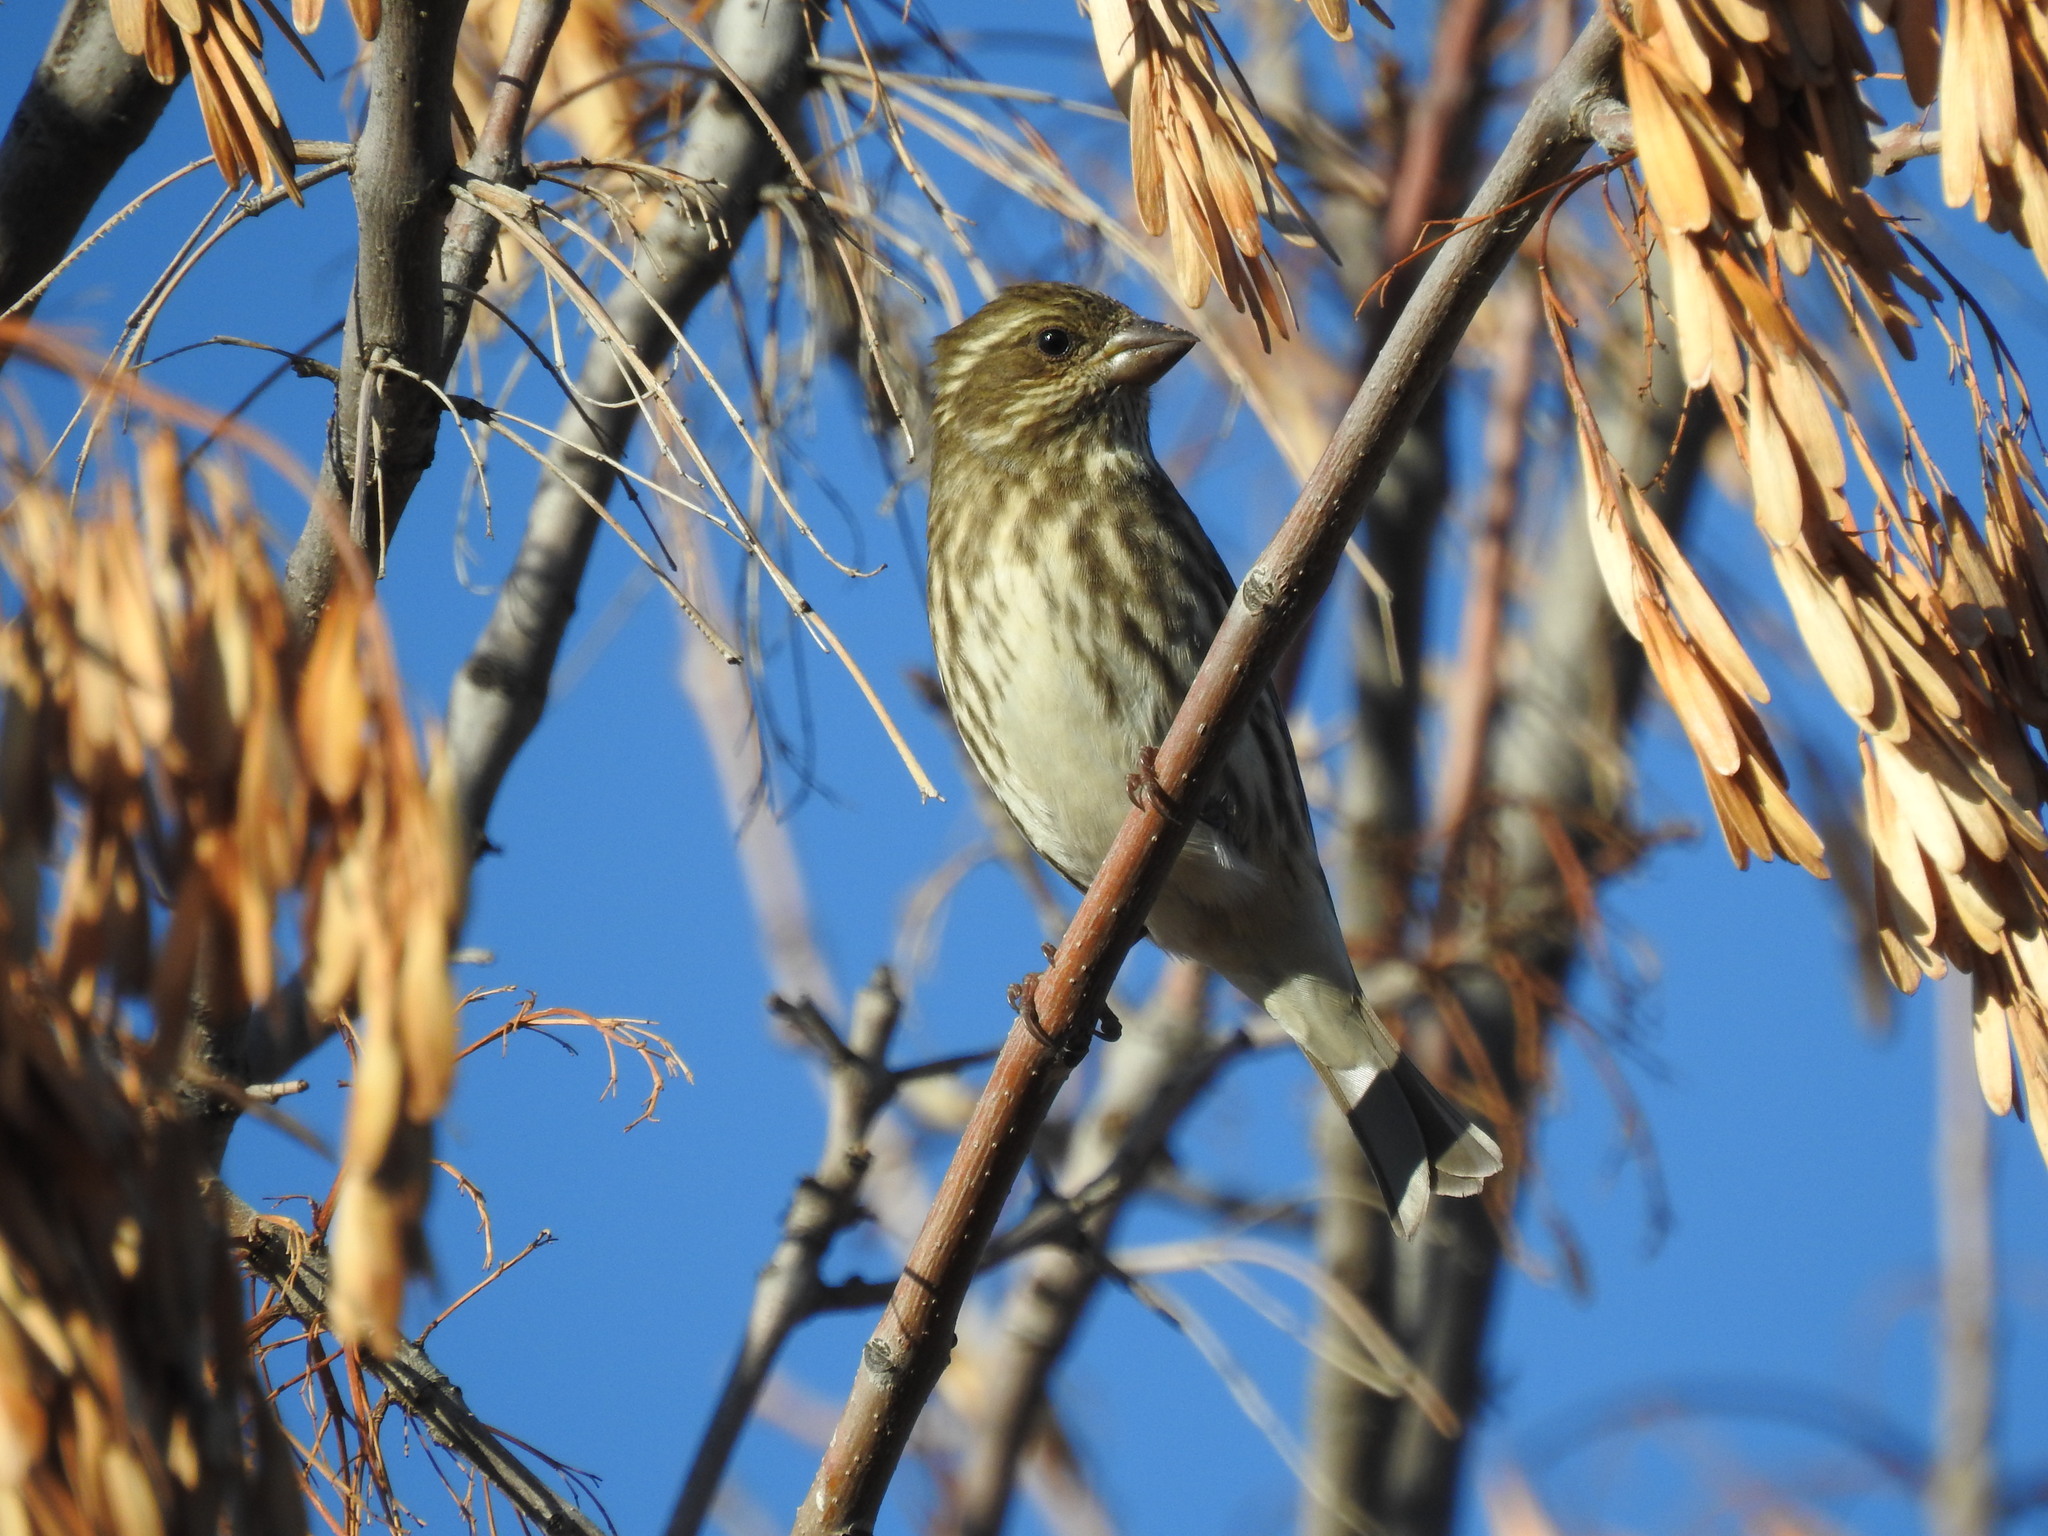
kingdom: Animalia
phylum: Chordata
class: Aves
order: Passeriformes
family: Fringillidae
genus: Haemorhous
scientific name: Haemorhous purpureus
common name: Purple finch
